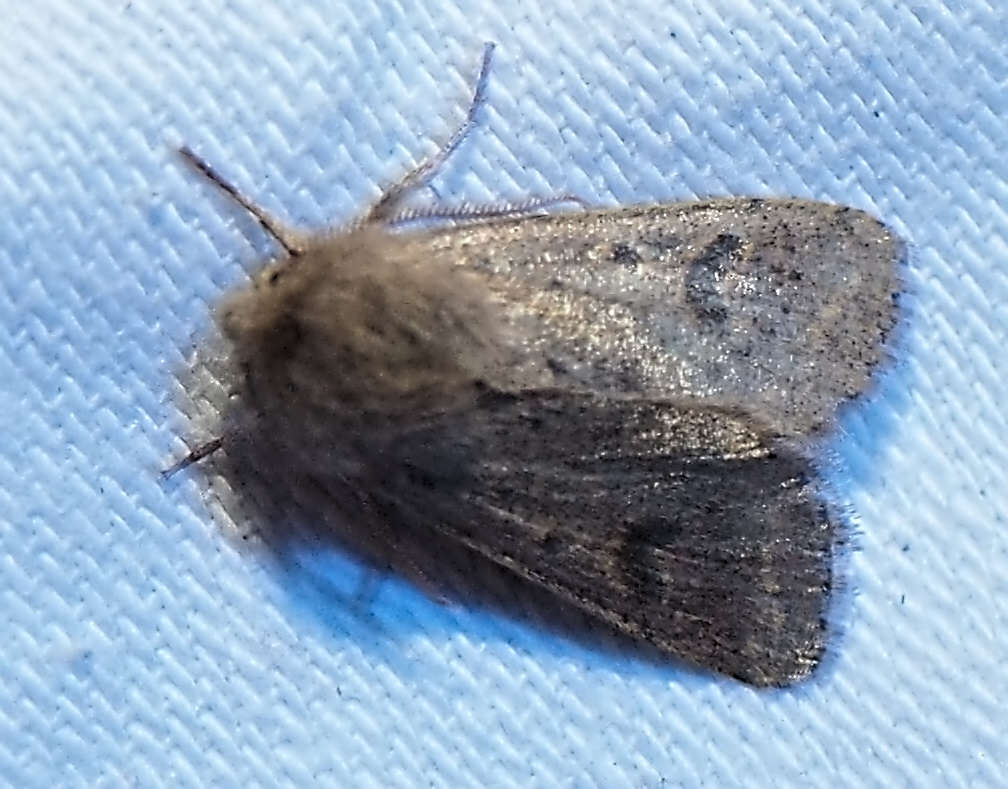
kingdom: Animalia
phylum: Arthropoda
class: Insecta
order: Lepidoptera
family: Noctuidae
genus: Orthosia
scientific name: Orthosia cruda
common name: Small quaker
